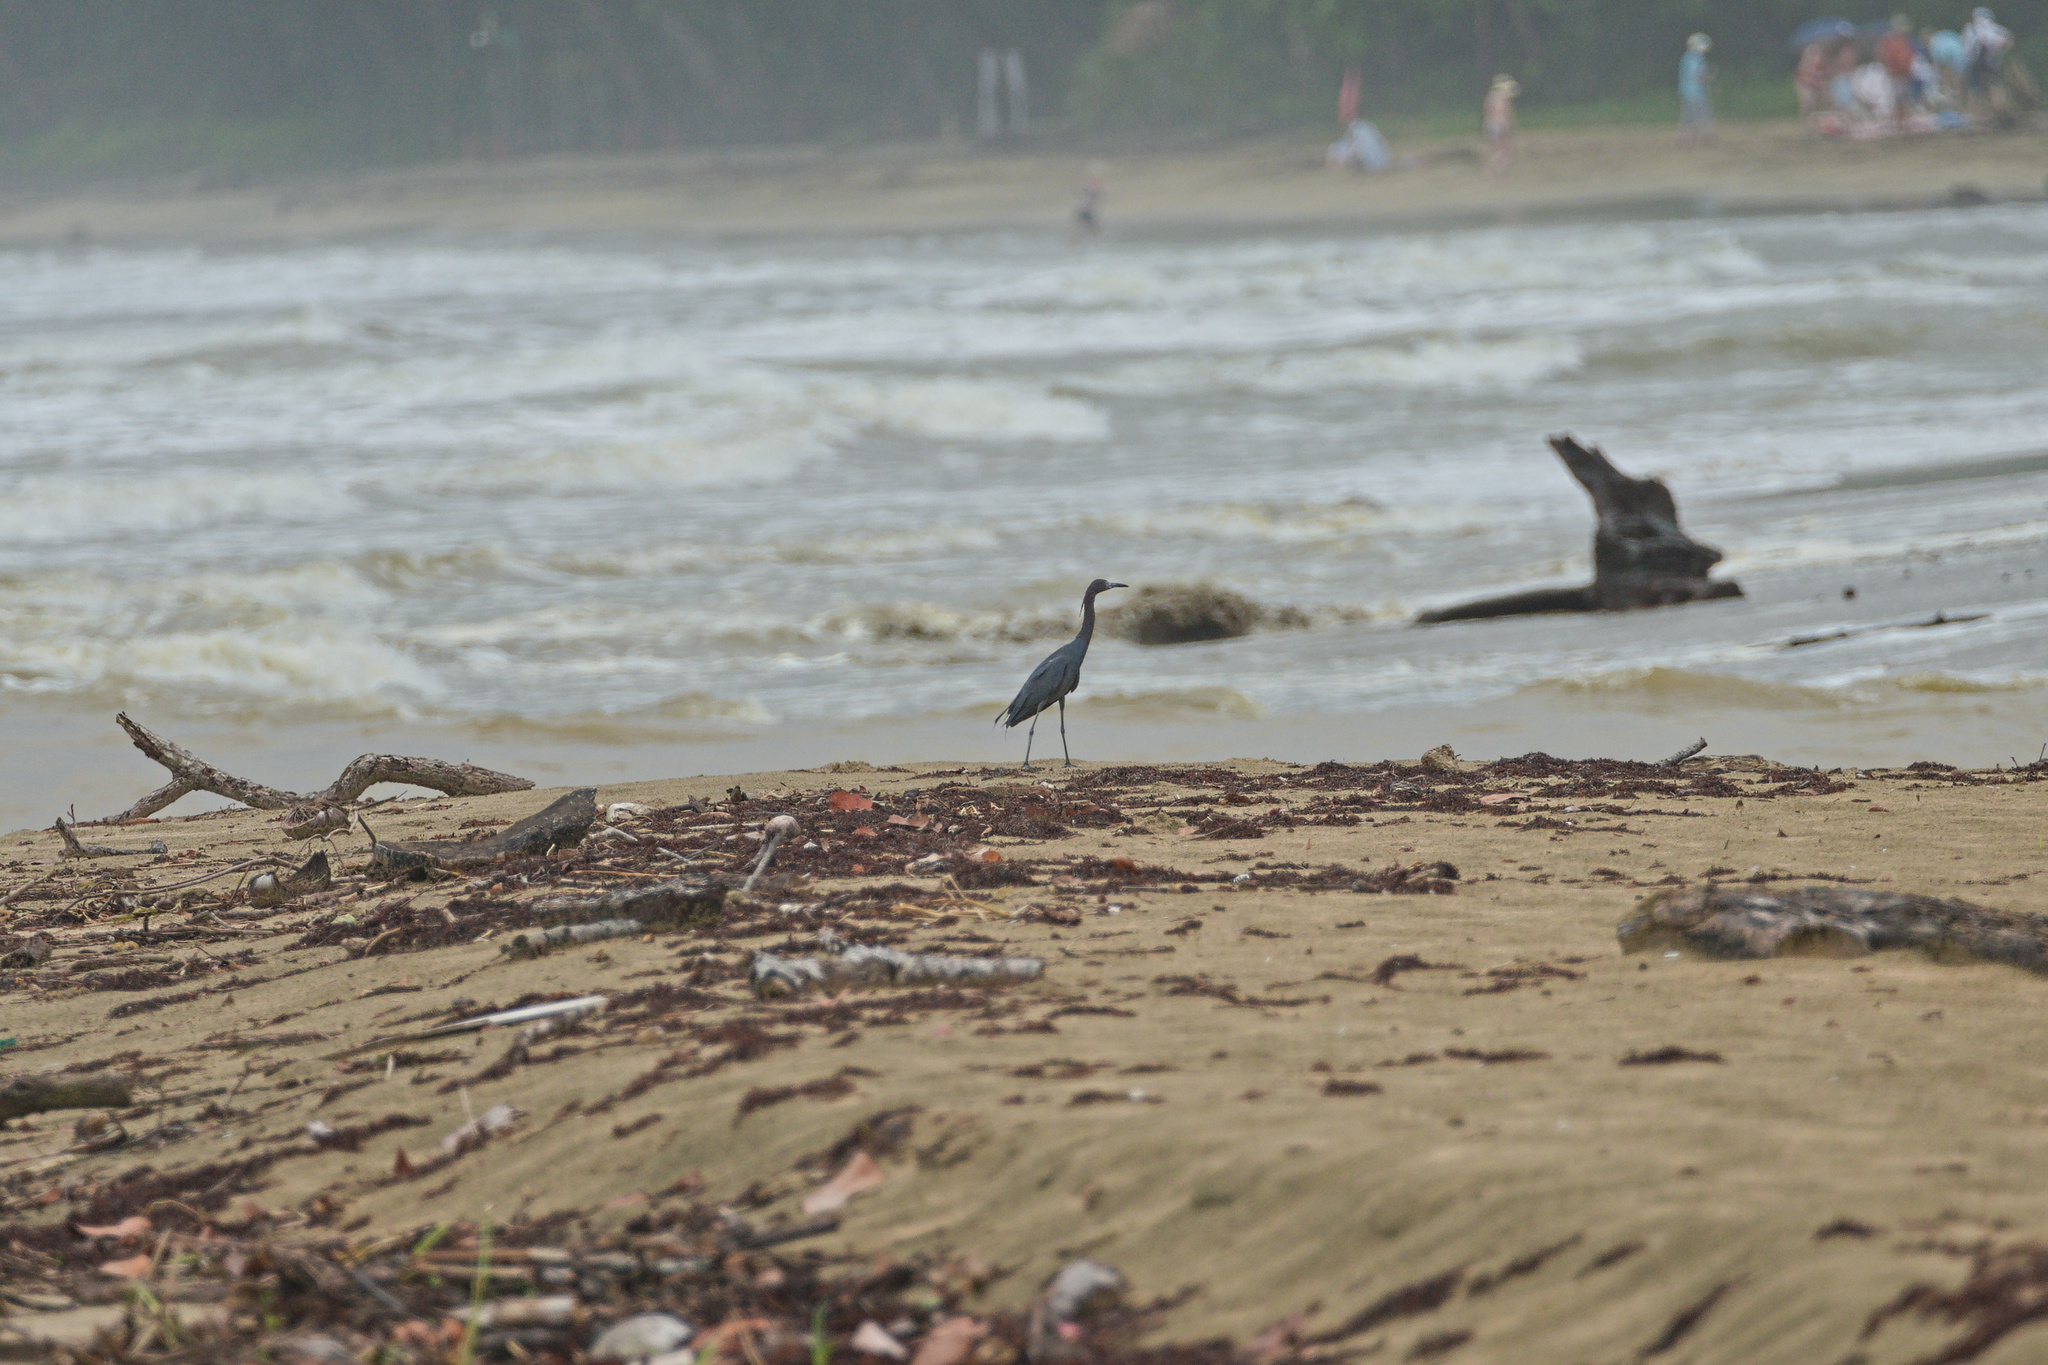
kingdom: Animalia
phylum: Chordata
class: Aves
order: Pelecaniformes
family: Ardeidae
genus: Egretta
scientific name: Egretta caerulea
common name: Little blue heron
